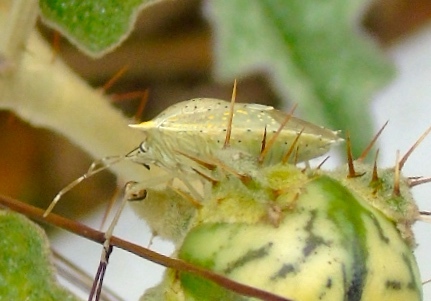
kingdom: Animalia
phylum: Arthropoda
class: Insecta
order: Hemiptera
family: Pentatomidae
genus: Arvelius
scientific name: Arvelius albopunctatus
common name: Tomato stink bug
